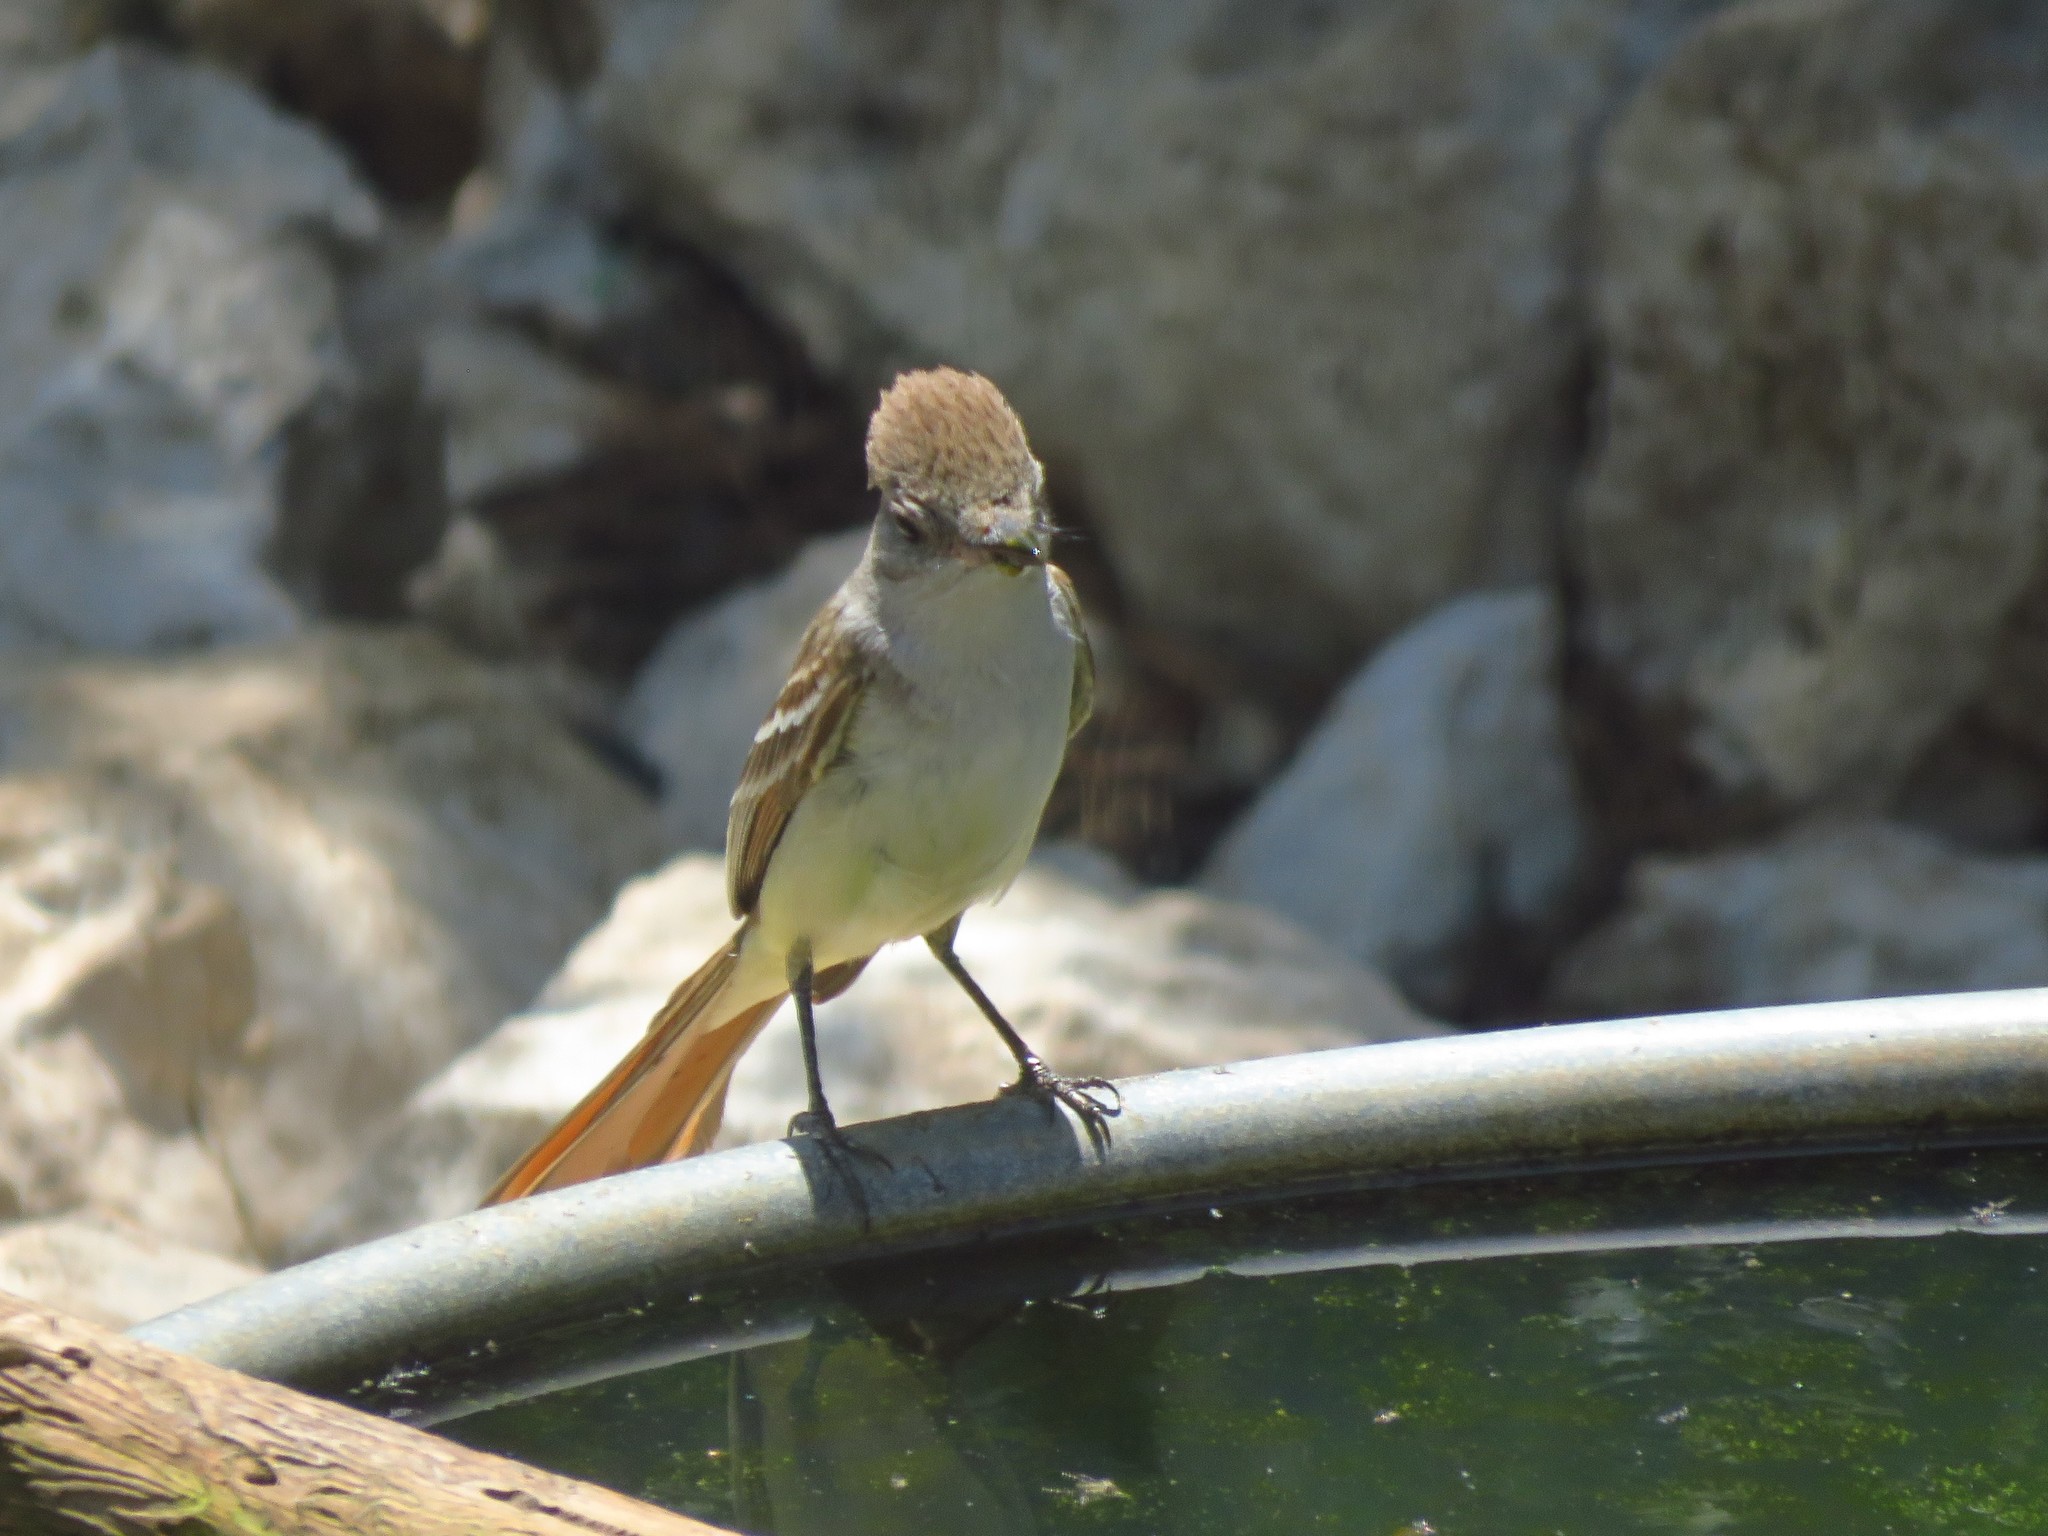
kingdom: Animalia
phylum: Chordata
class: Aves
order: Passeriformes
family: Tyrannidae
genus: Myiarchus
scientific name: Myiarchus cinerascens
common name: Ash-throated flycatcher
